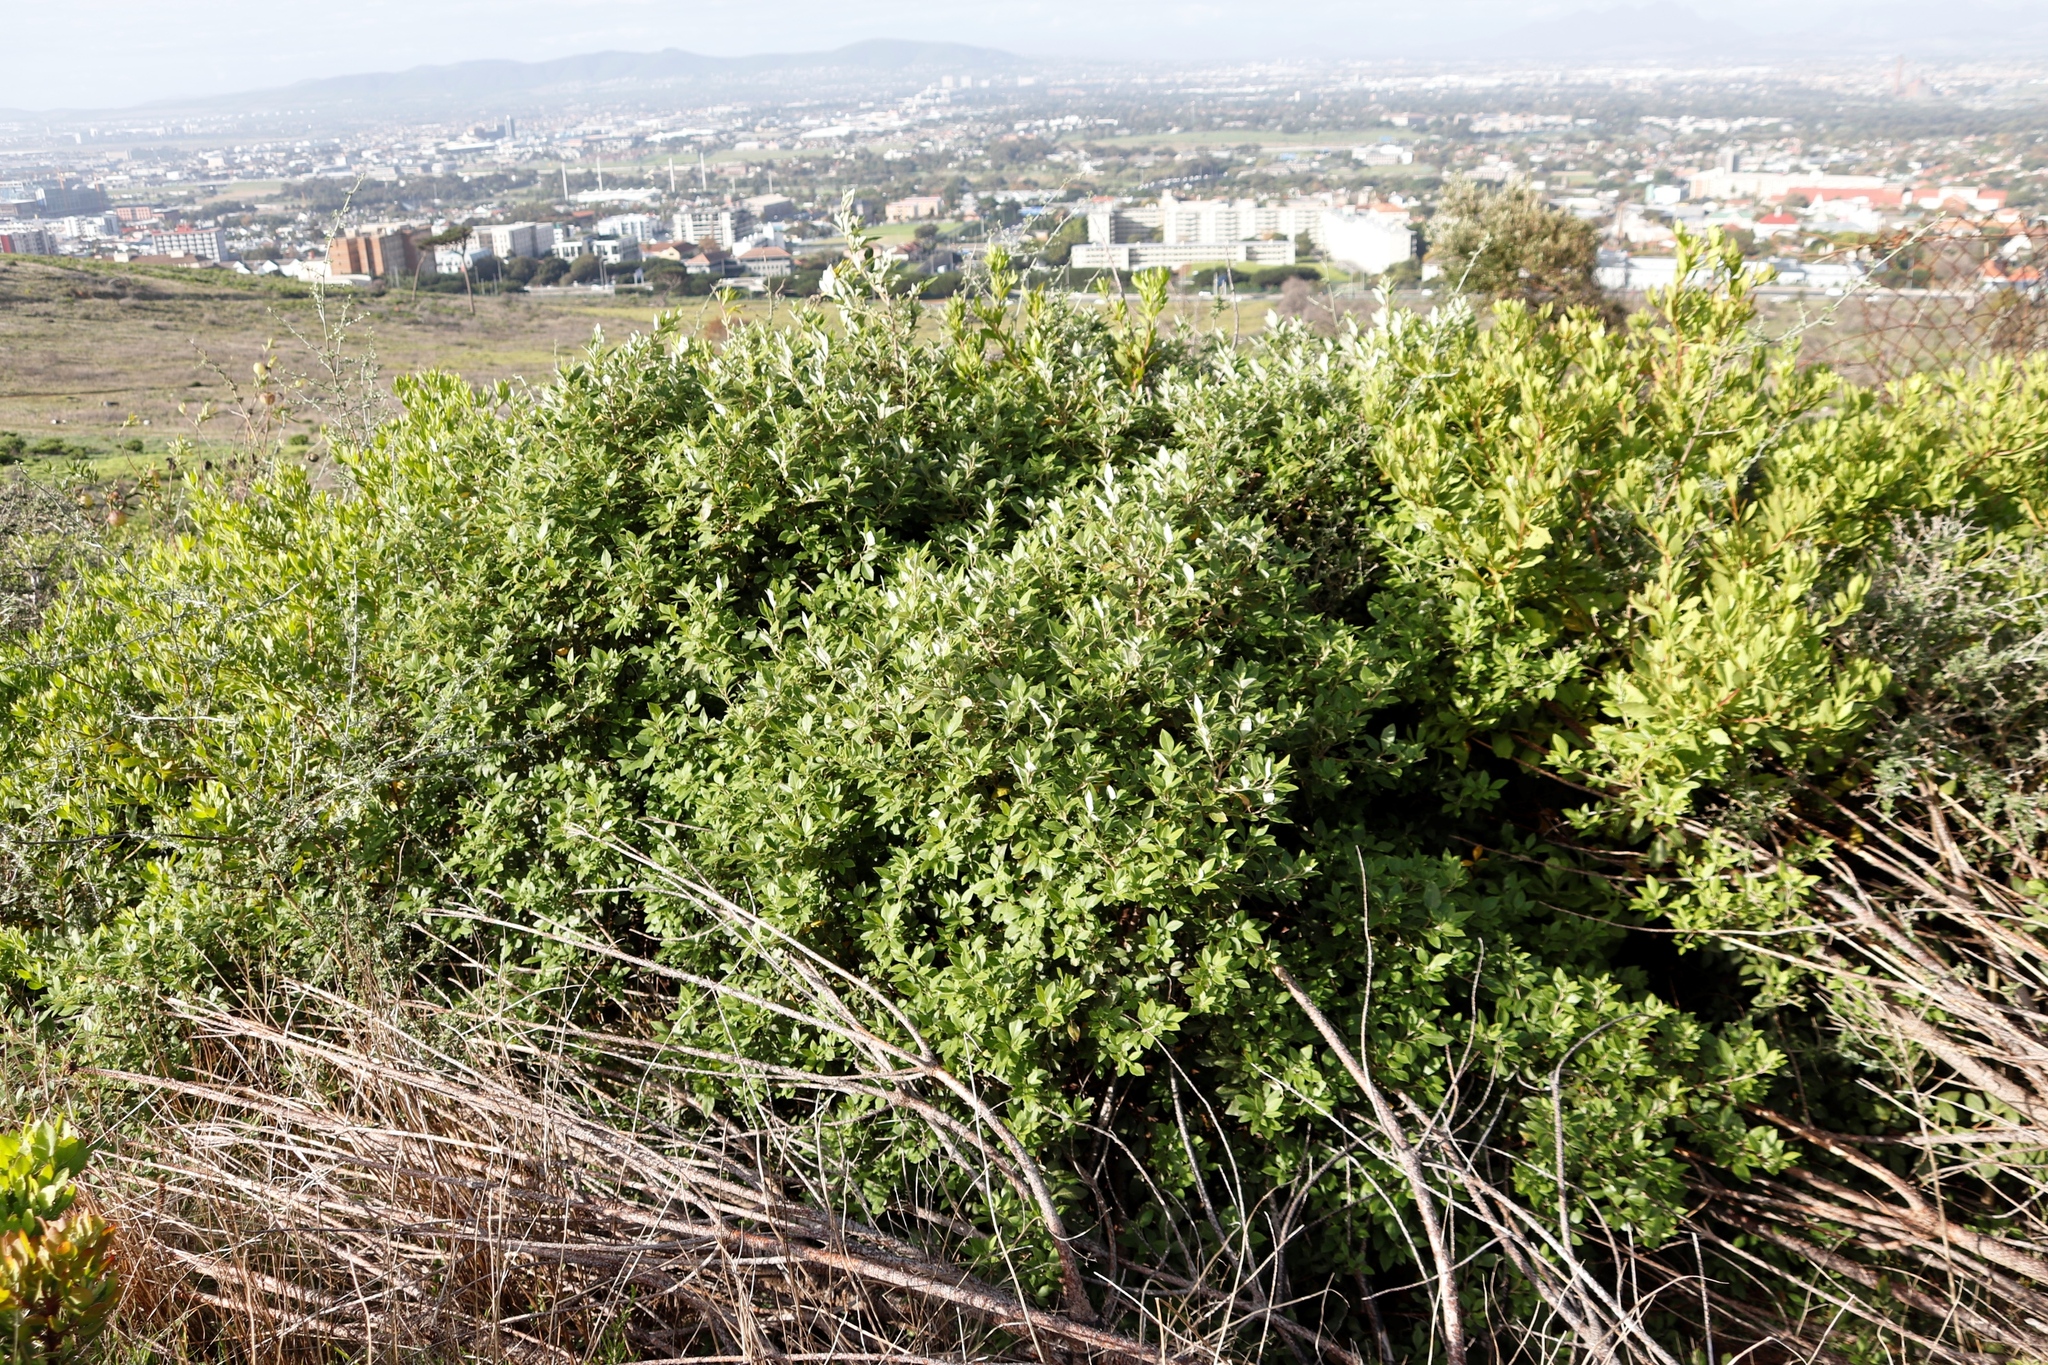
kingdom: Plantae
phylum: Tracheophyta
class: Magnoliopsida
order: Sapindales
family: Anacardiaceae
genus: Searsia
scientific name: Searsia tomentosa
